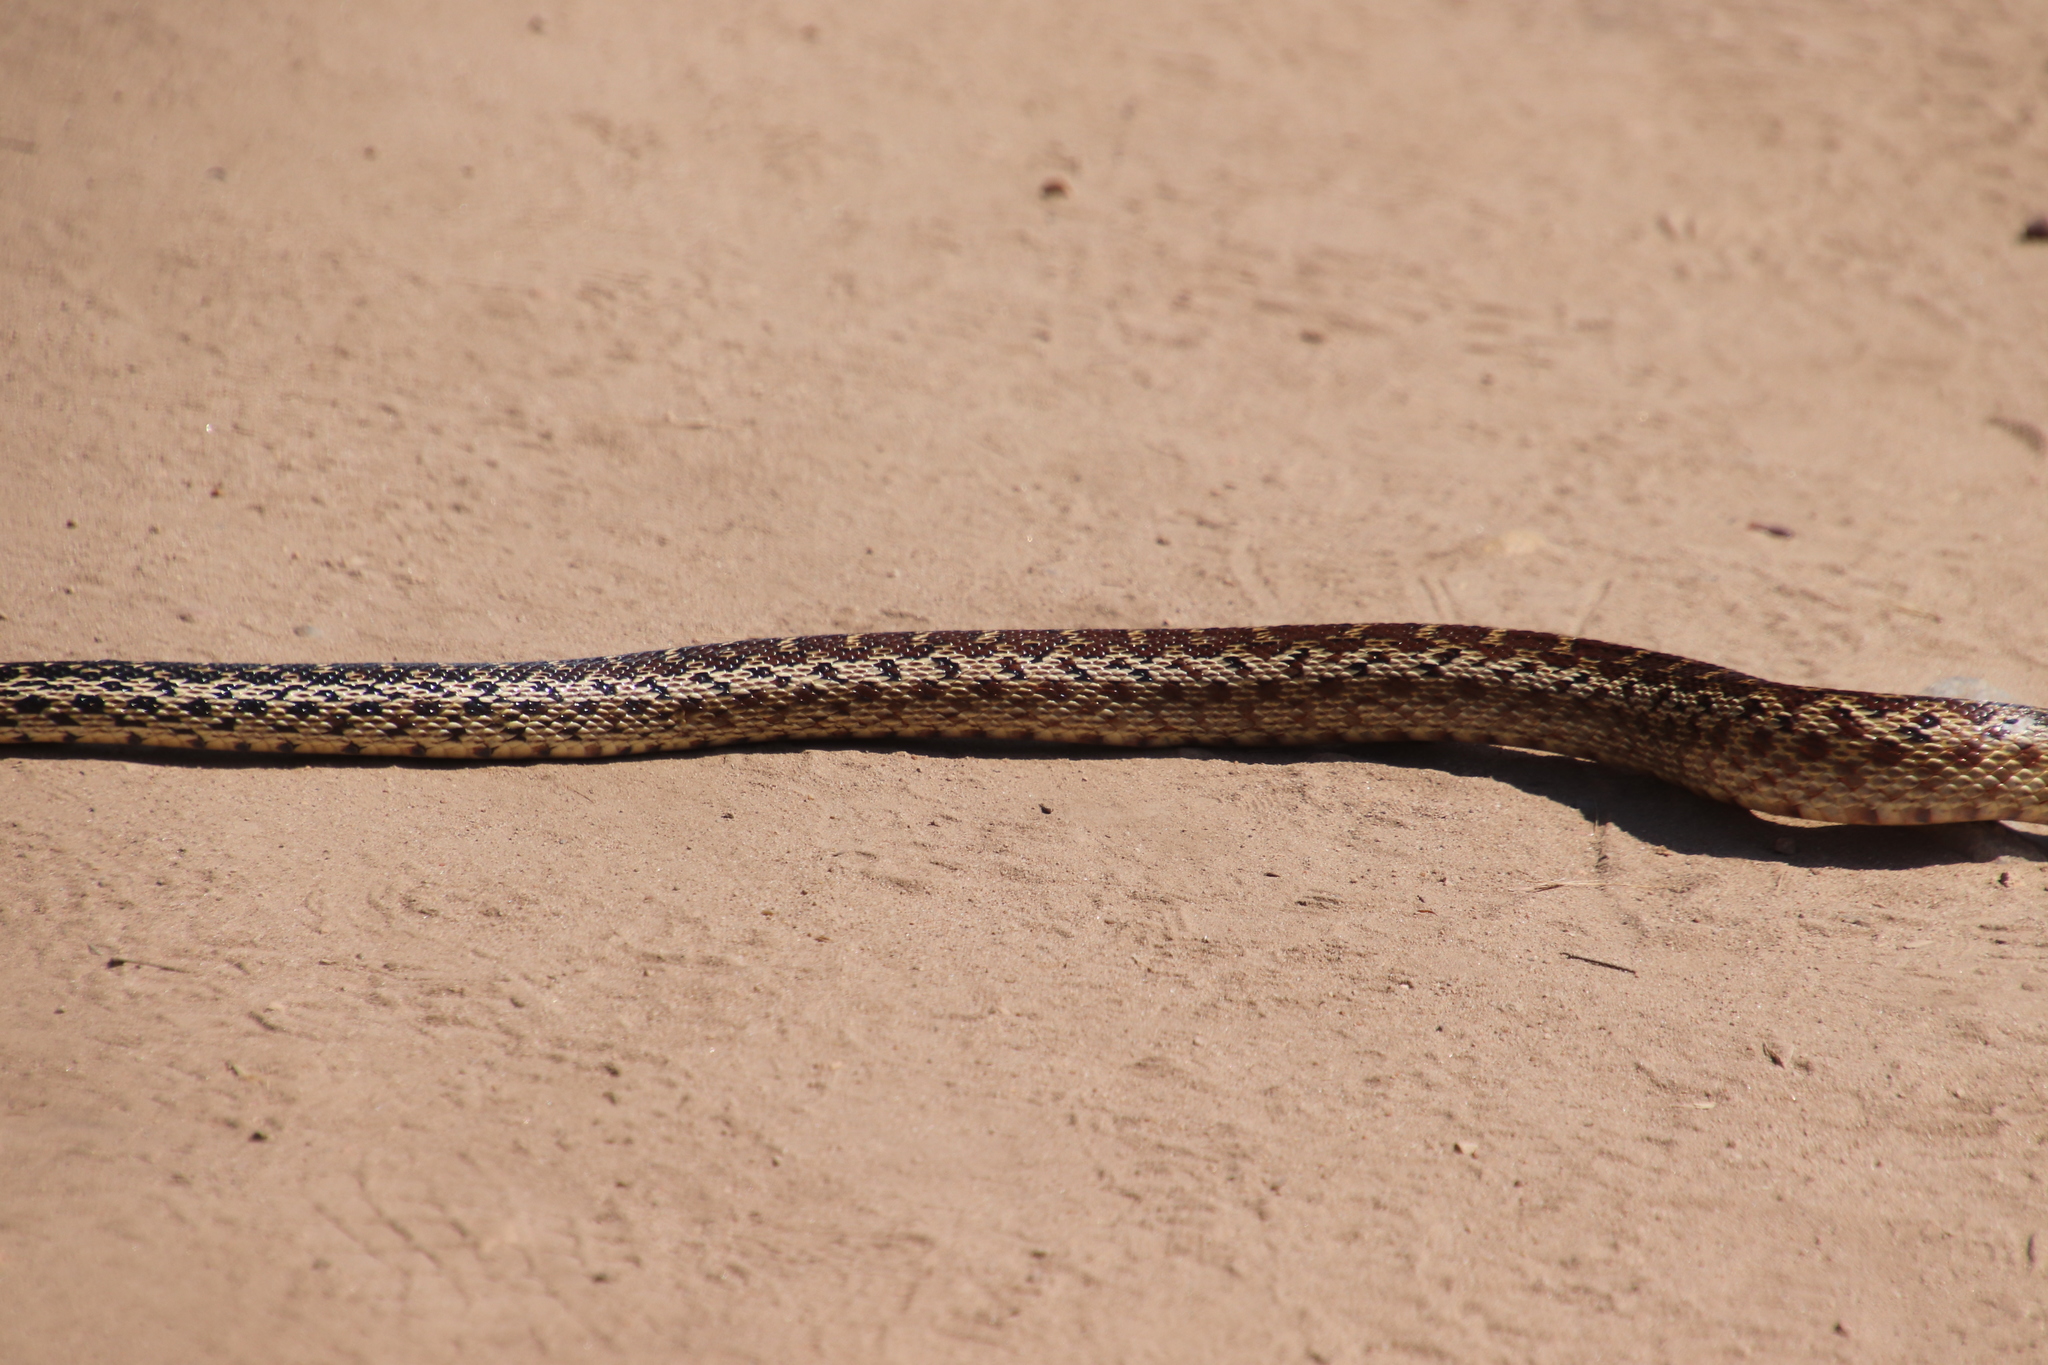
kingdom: Animalia
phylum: Chordata
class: Squamata
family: Colubridae
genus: Pituophis
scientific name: Pituophis catenifer
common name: Gopher snake
